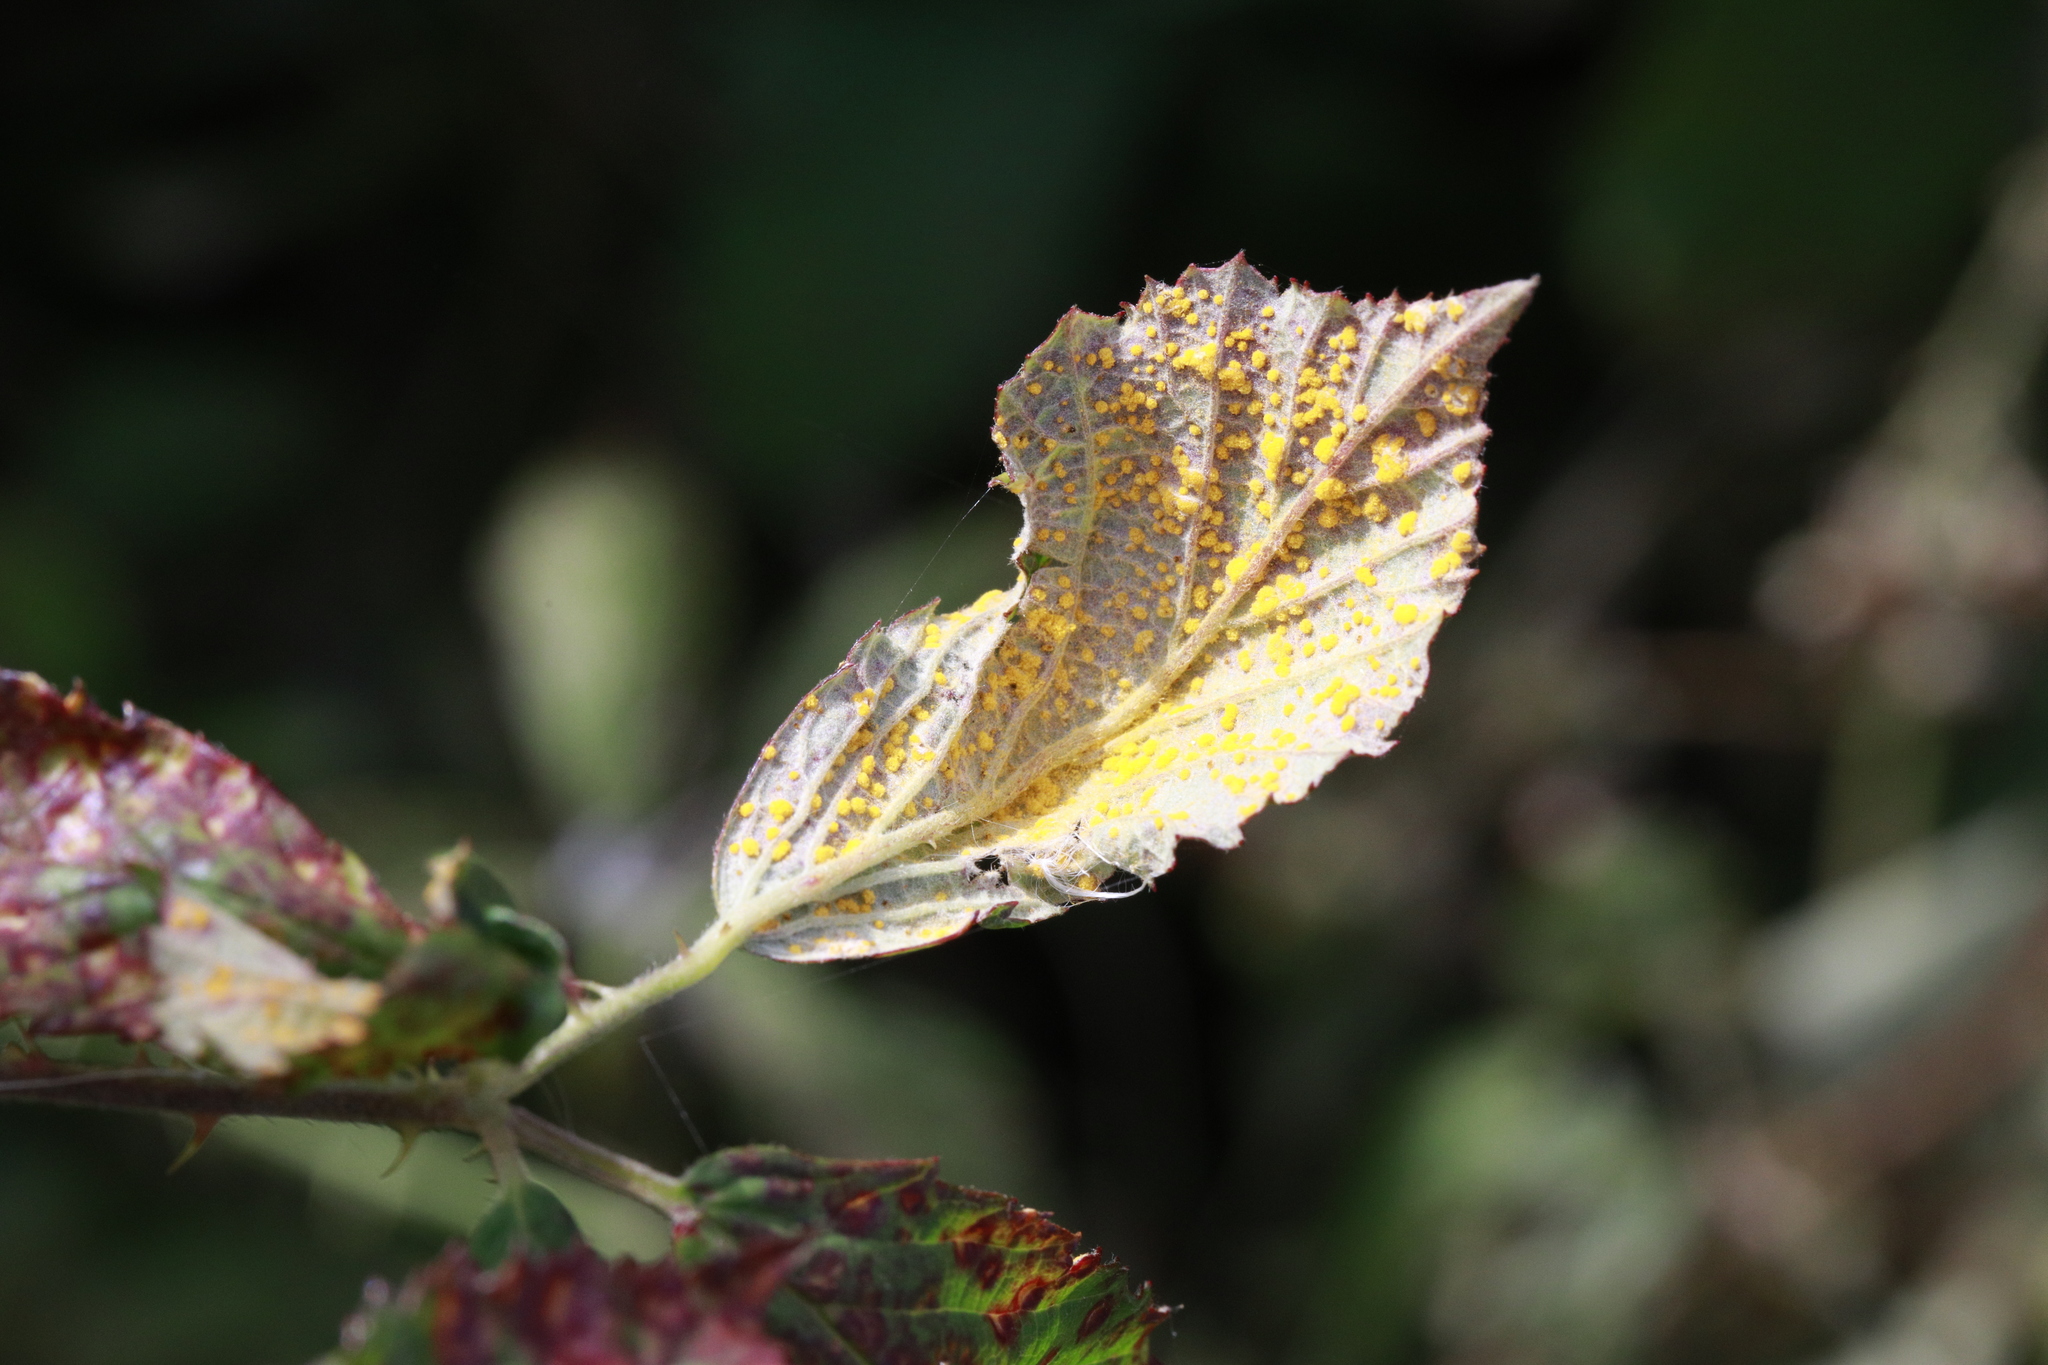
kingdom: Fungi
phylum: Basidiomycota
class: Pucciniomycetes
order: Pucciniales
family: Phragmidiaceae
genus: Phragmidium
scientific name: Phragmidium violaceum
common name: Violet bramble rust
